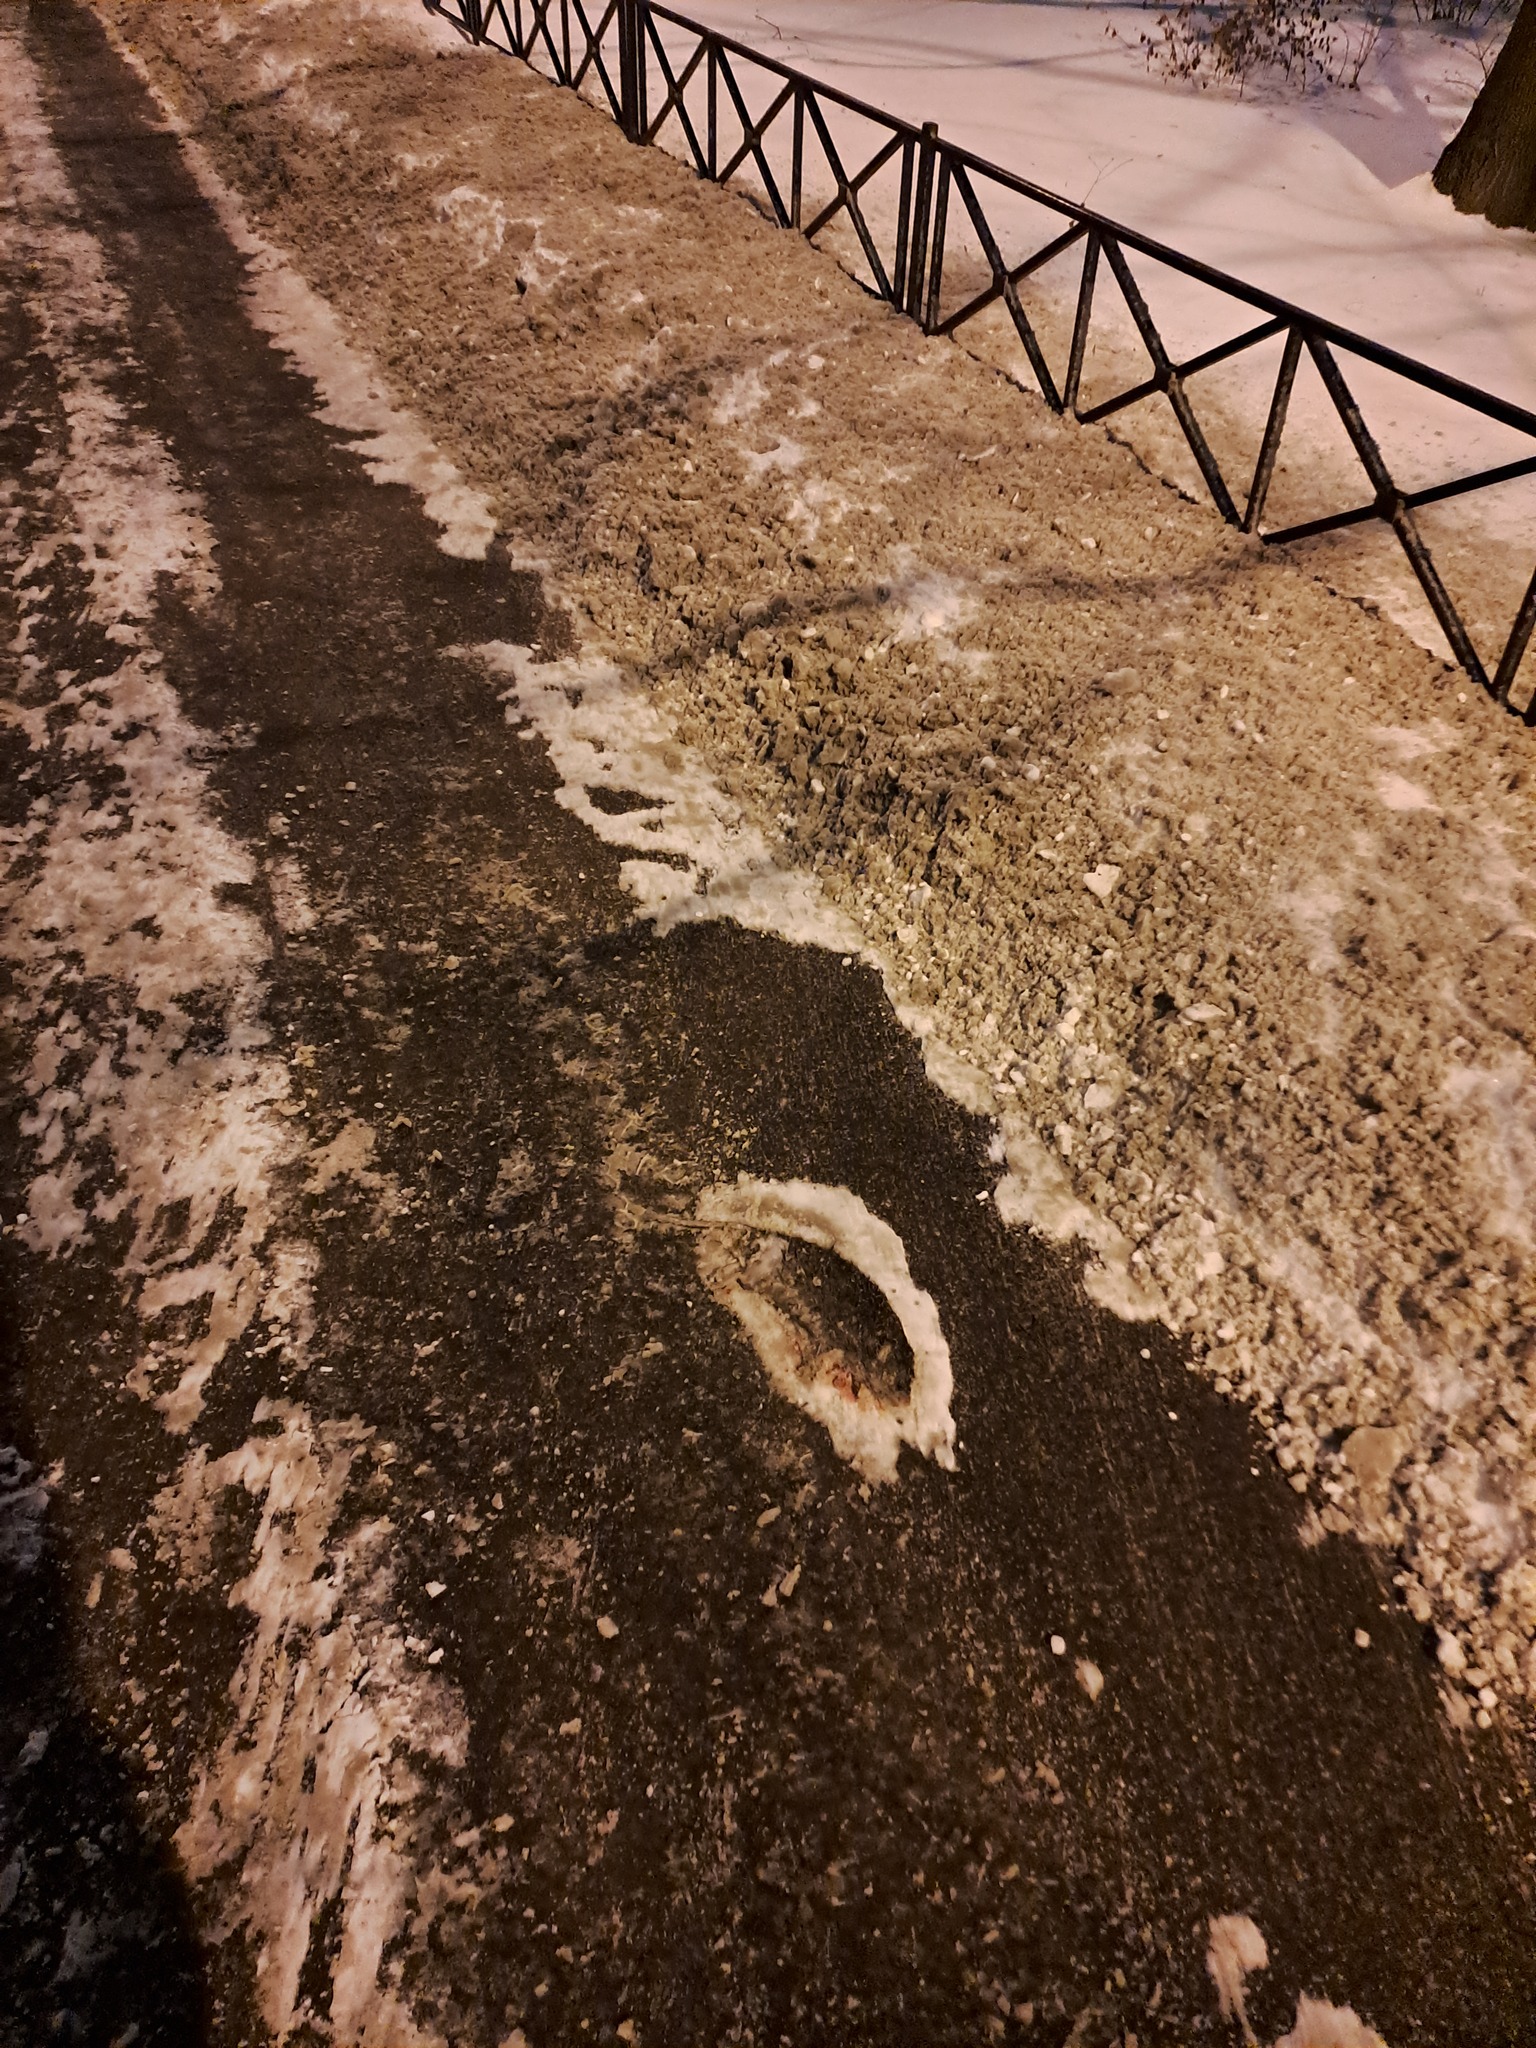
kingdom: Animalia
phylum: Chordata
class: Mammalia
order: Rodentia
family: Muridae
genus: Rattus
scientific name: Rattus norvegicus
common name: Brown rat
